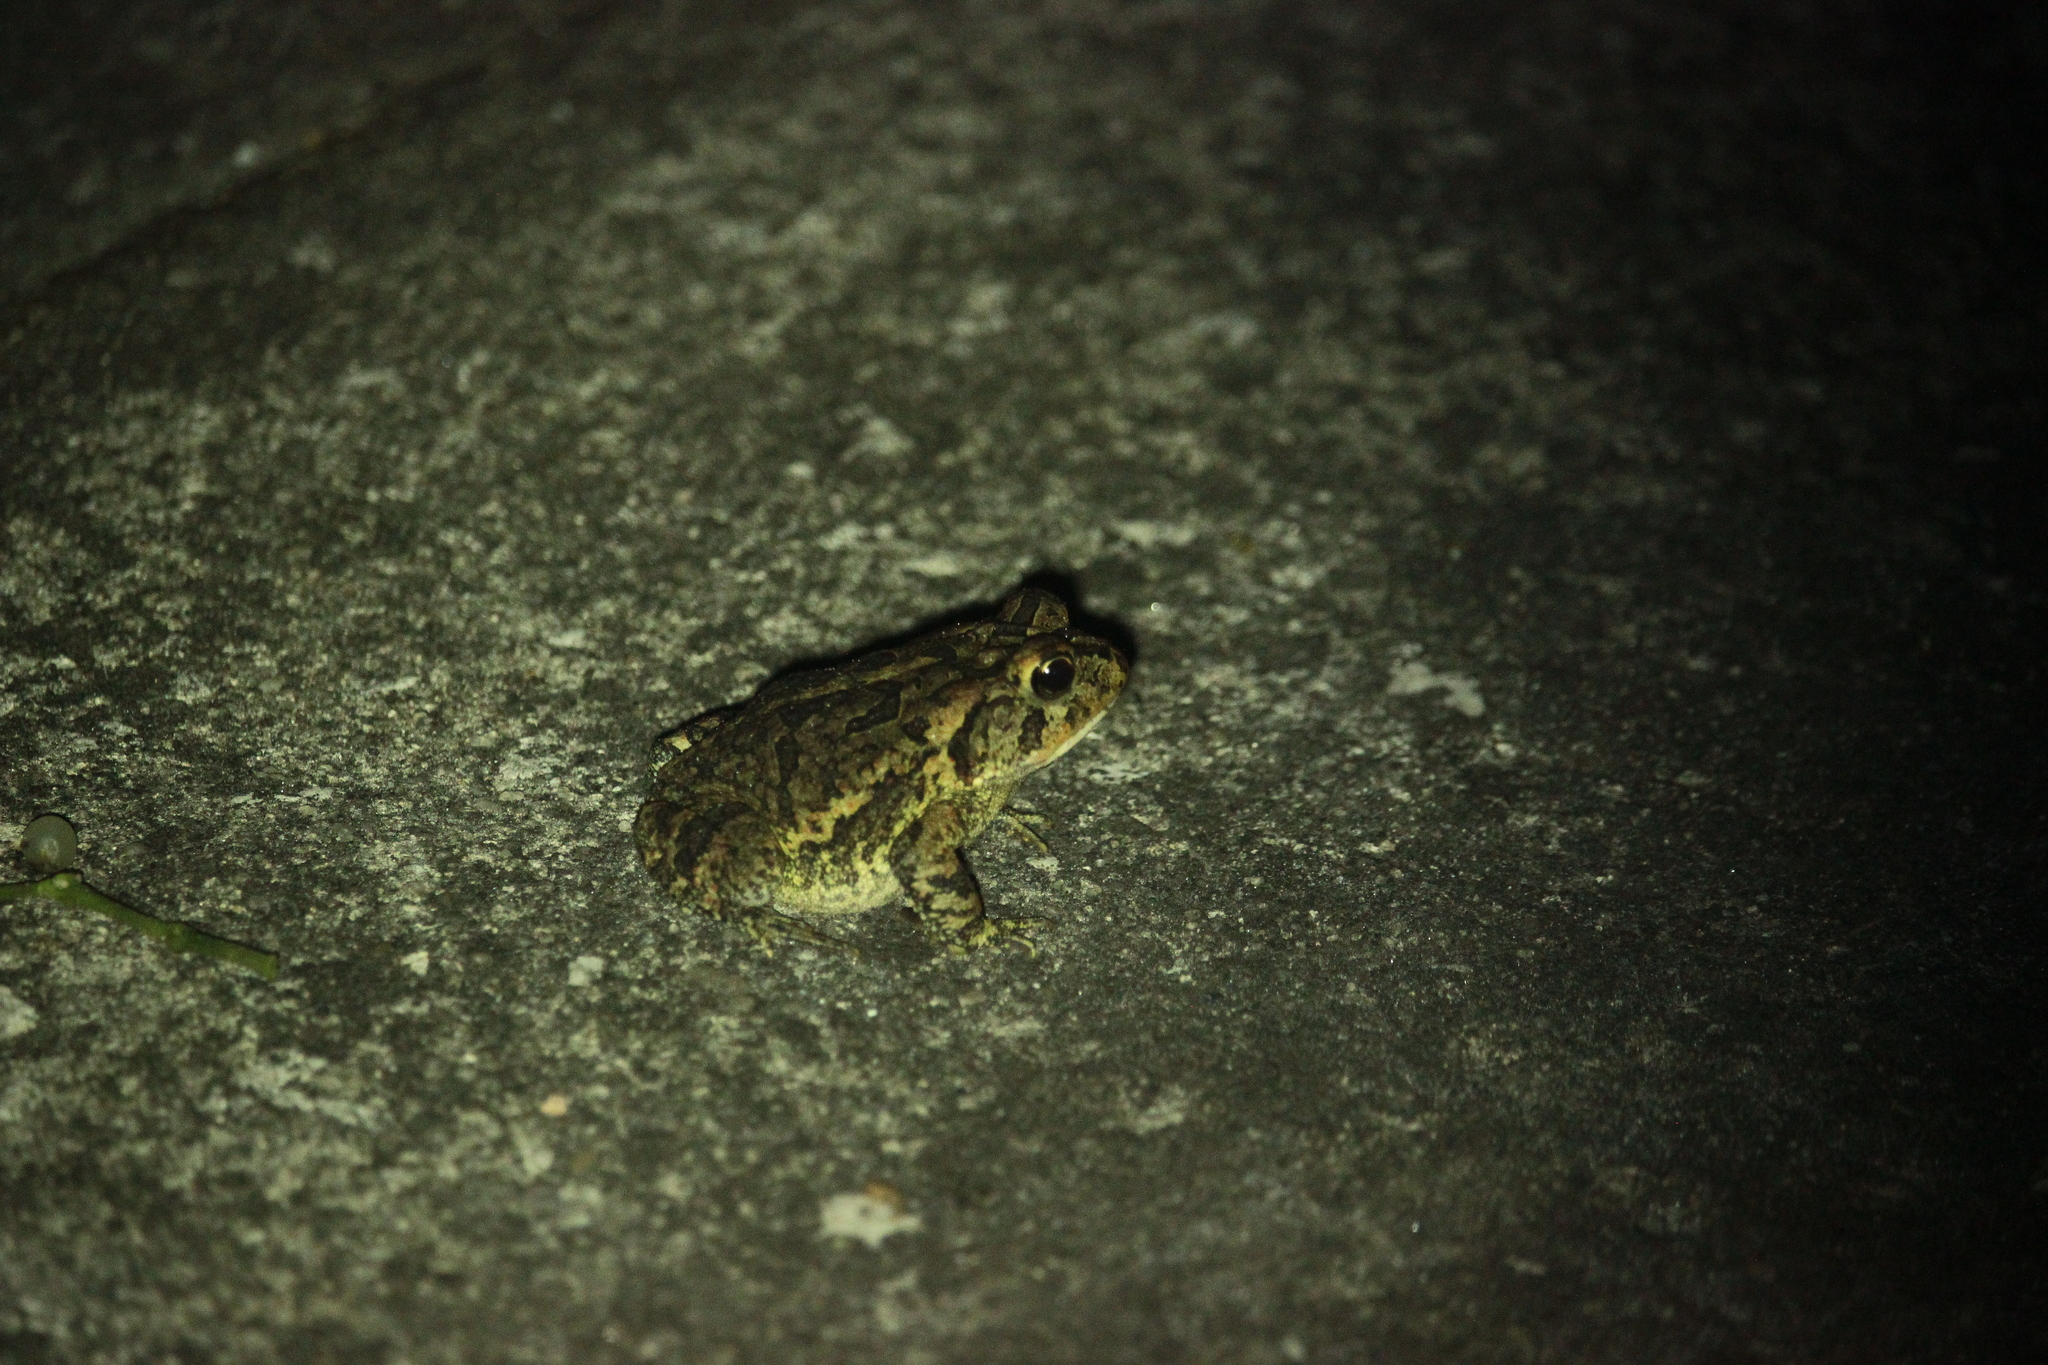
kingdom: Animalia
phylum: Chordata
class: Amphibia
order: Anura
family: Bufonidae
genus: Anaxyrus
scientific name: Anaxyrus terrestris
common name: Southern toad
